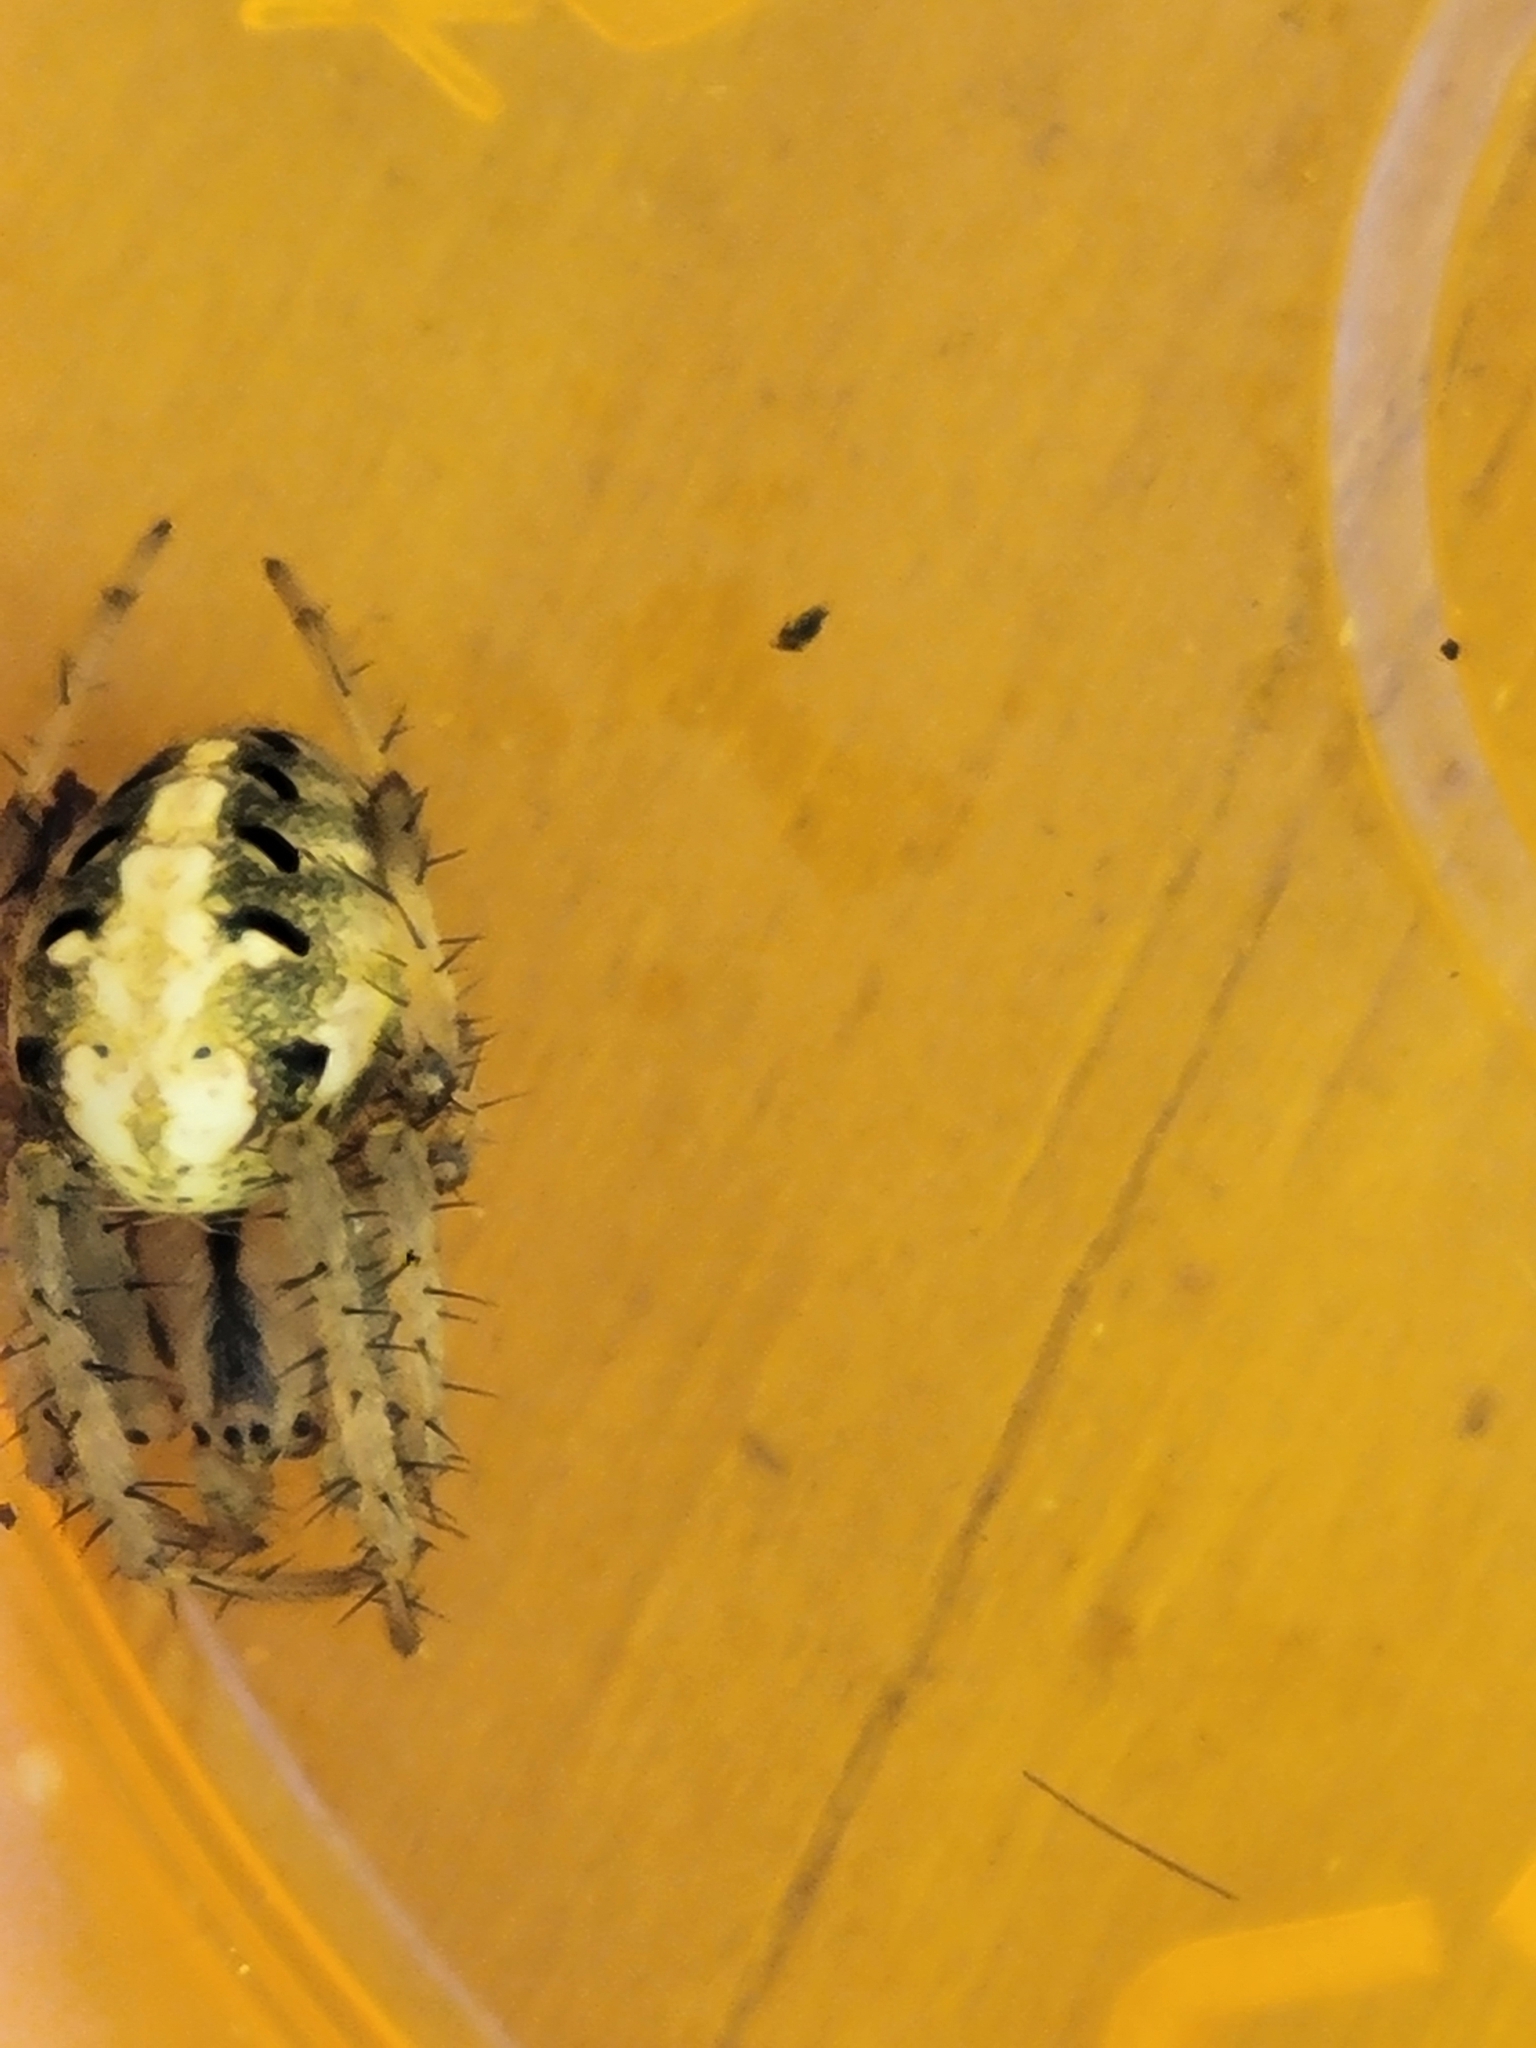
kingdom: Animalia
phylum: Arthropoda
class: Arachnida
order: Araneae
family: Araneidae
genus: Neoscona
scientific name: Neoscona arabesca
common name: Orb weavers
